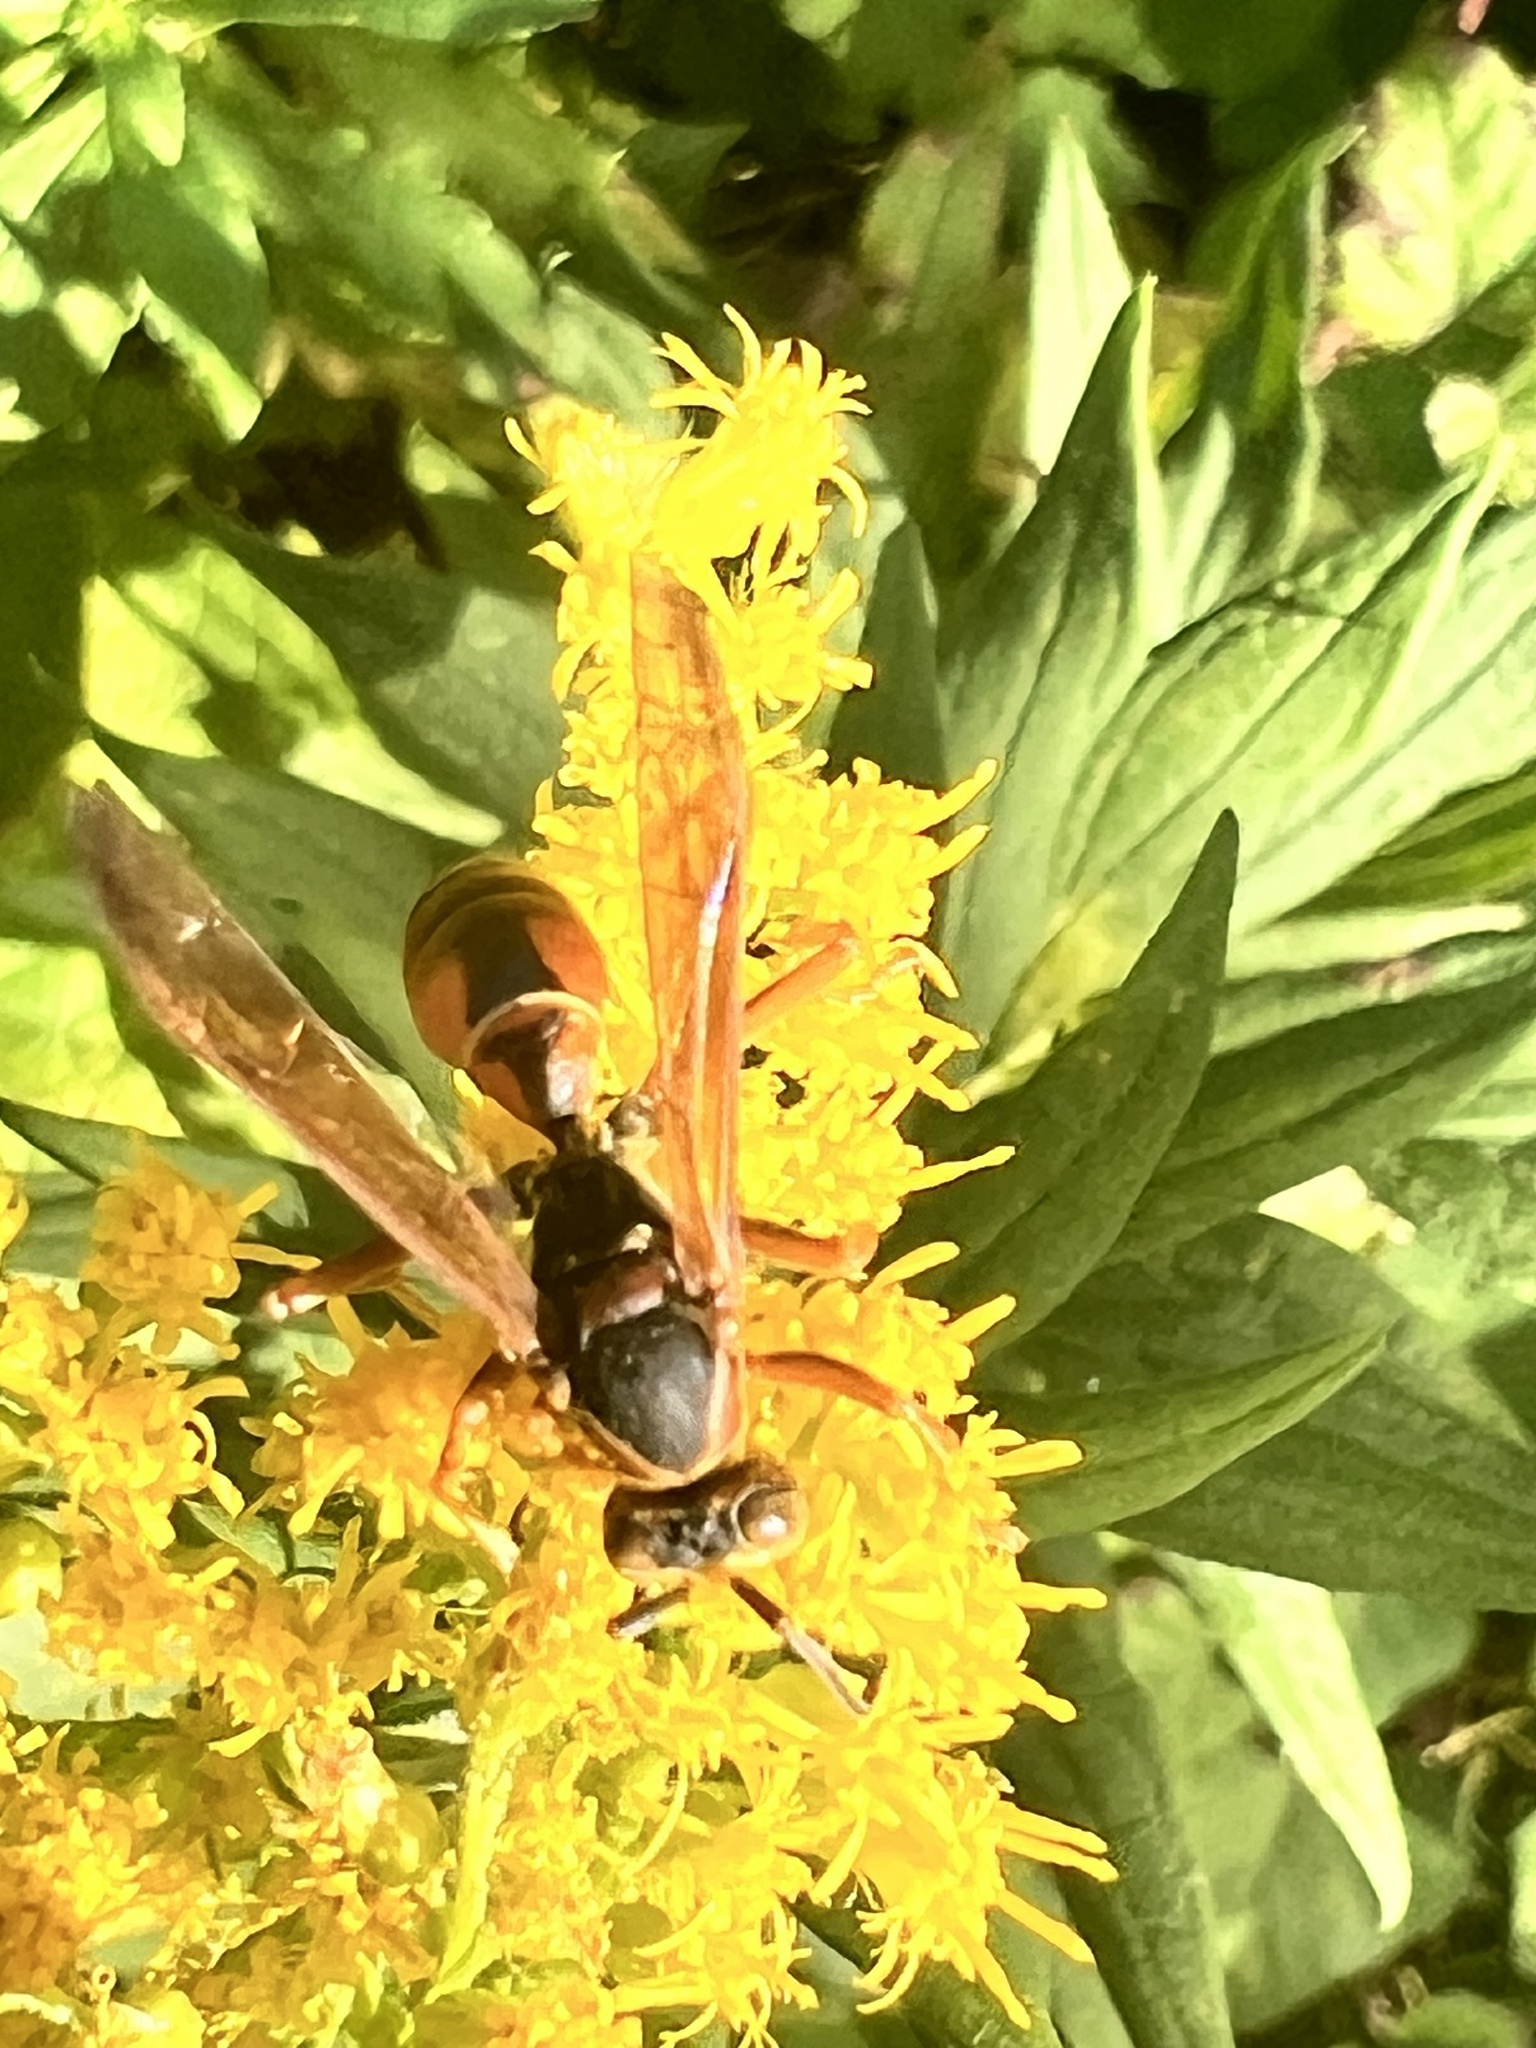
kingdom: Animalia
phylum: Arthropoda
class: Insecta
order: Hymenoptera
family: Eumenidae
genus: Polistes
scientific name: Polistes fuscatus
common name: Dark paper wasp
